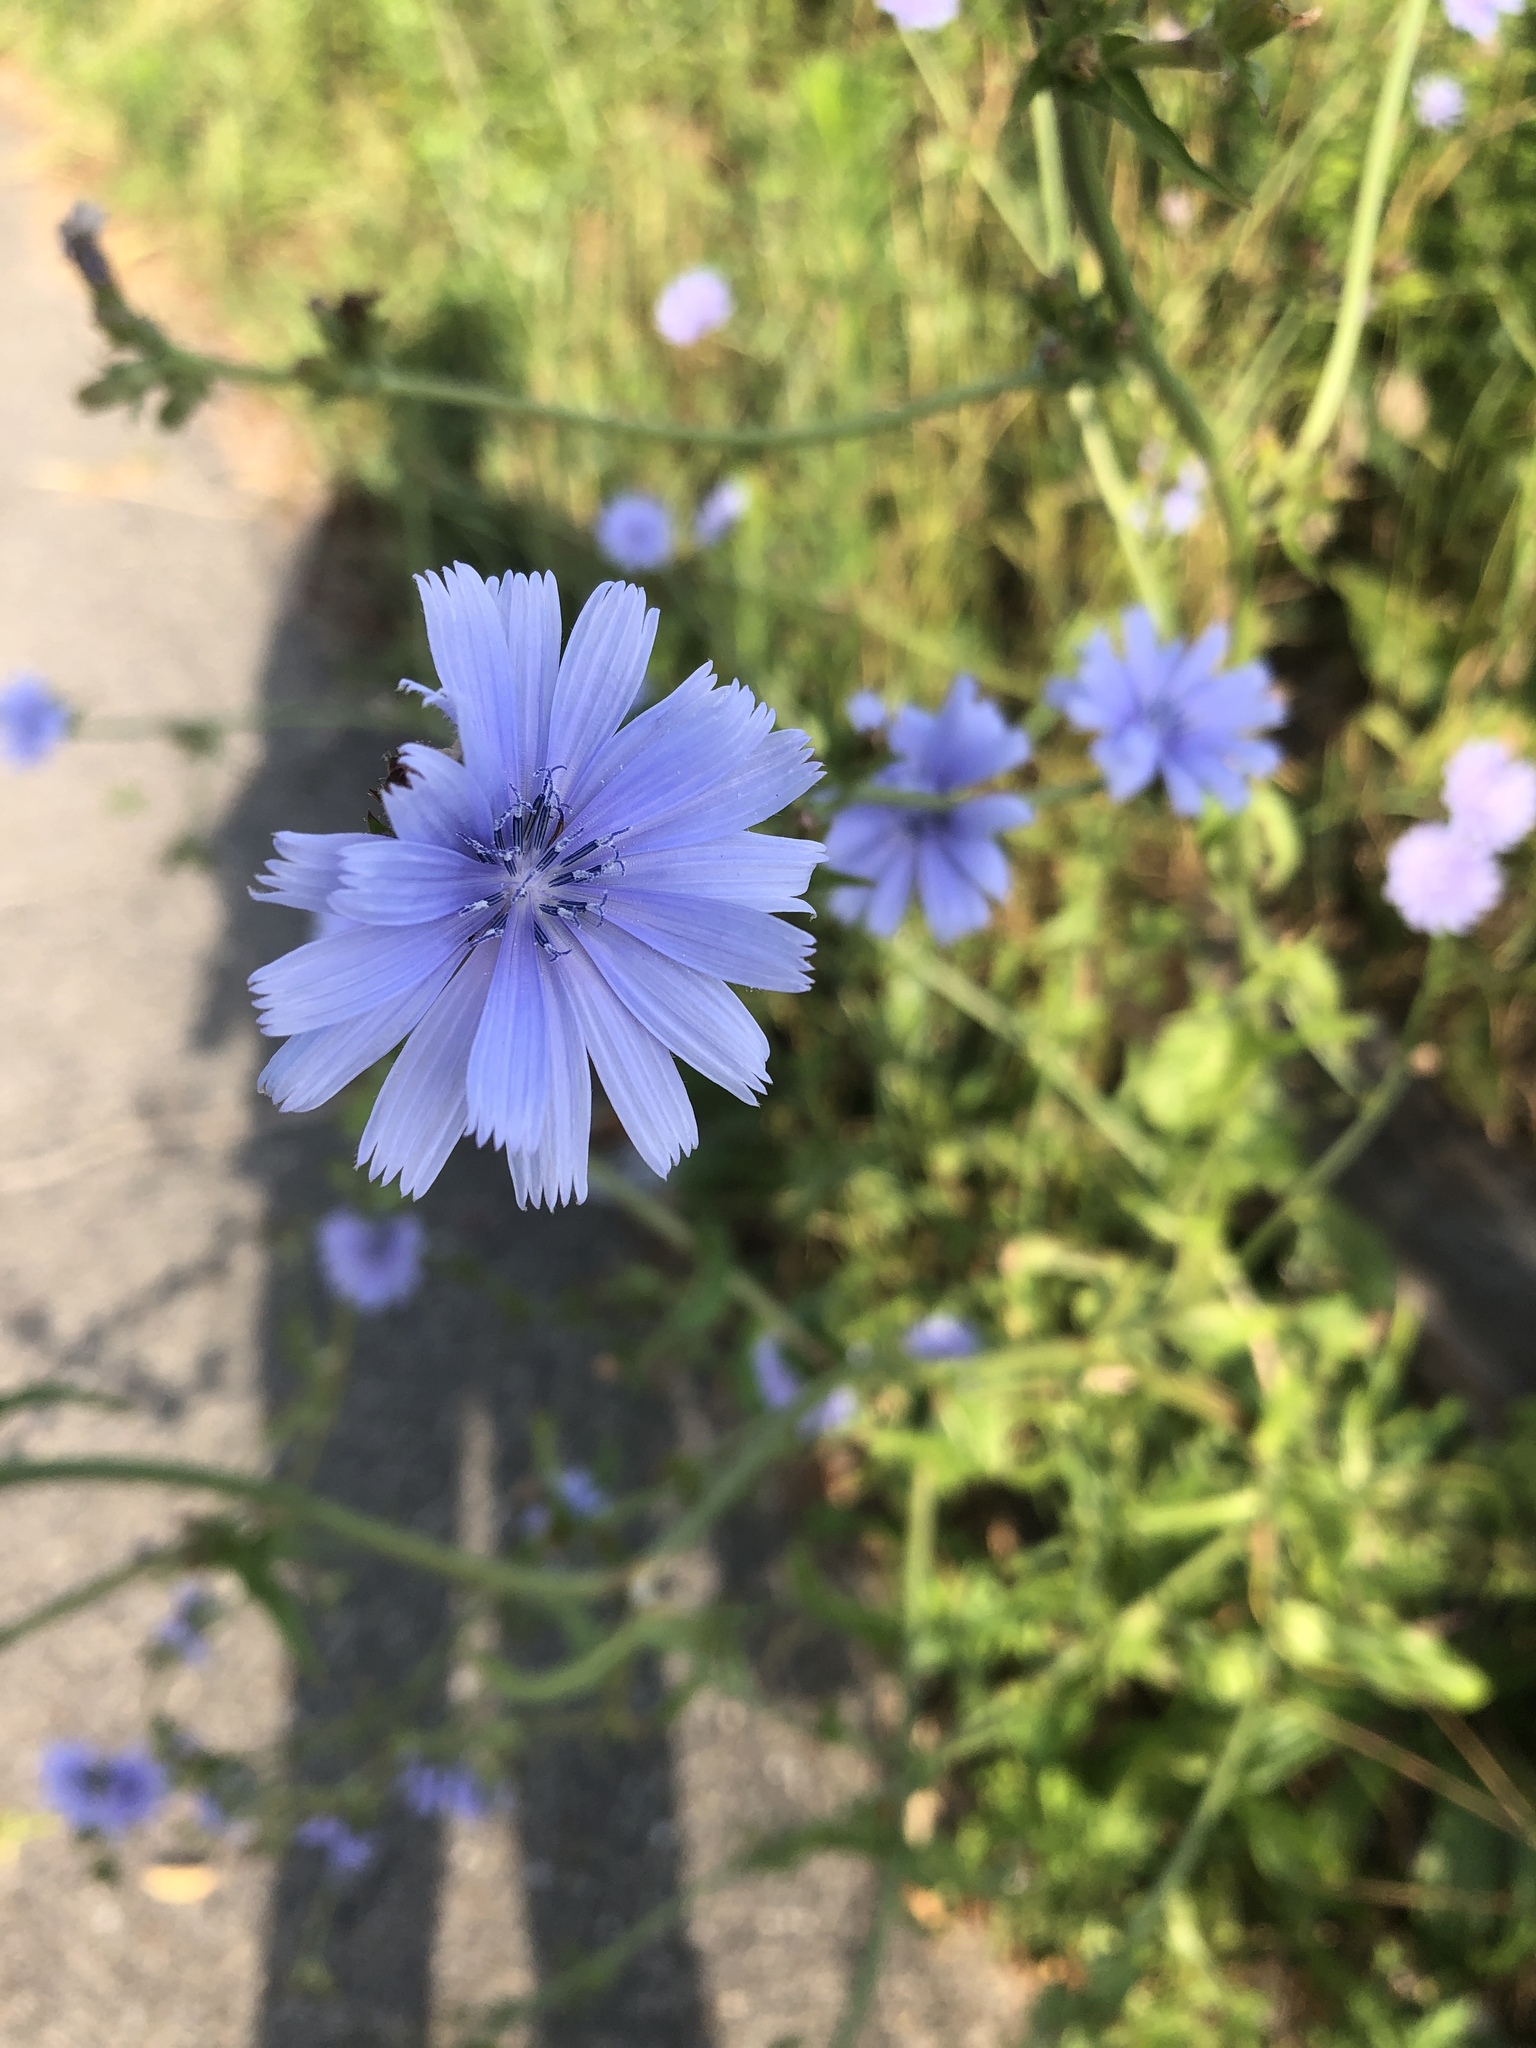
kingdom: Plantae
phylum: Tracheophyta
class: Magnoliopsida
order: Asterales
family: Asteraceae
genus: Cichorium
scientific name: Cichorium intybus
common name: Chicory
